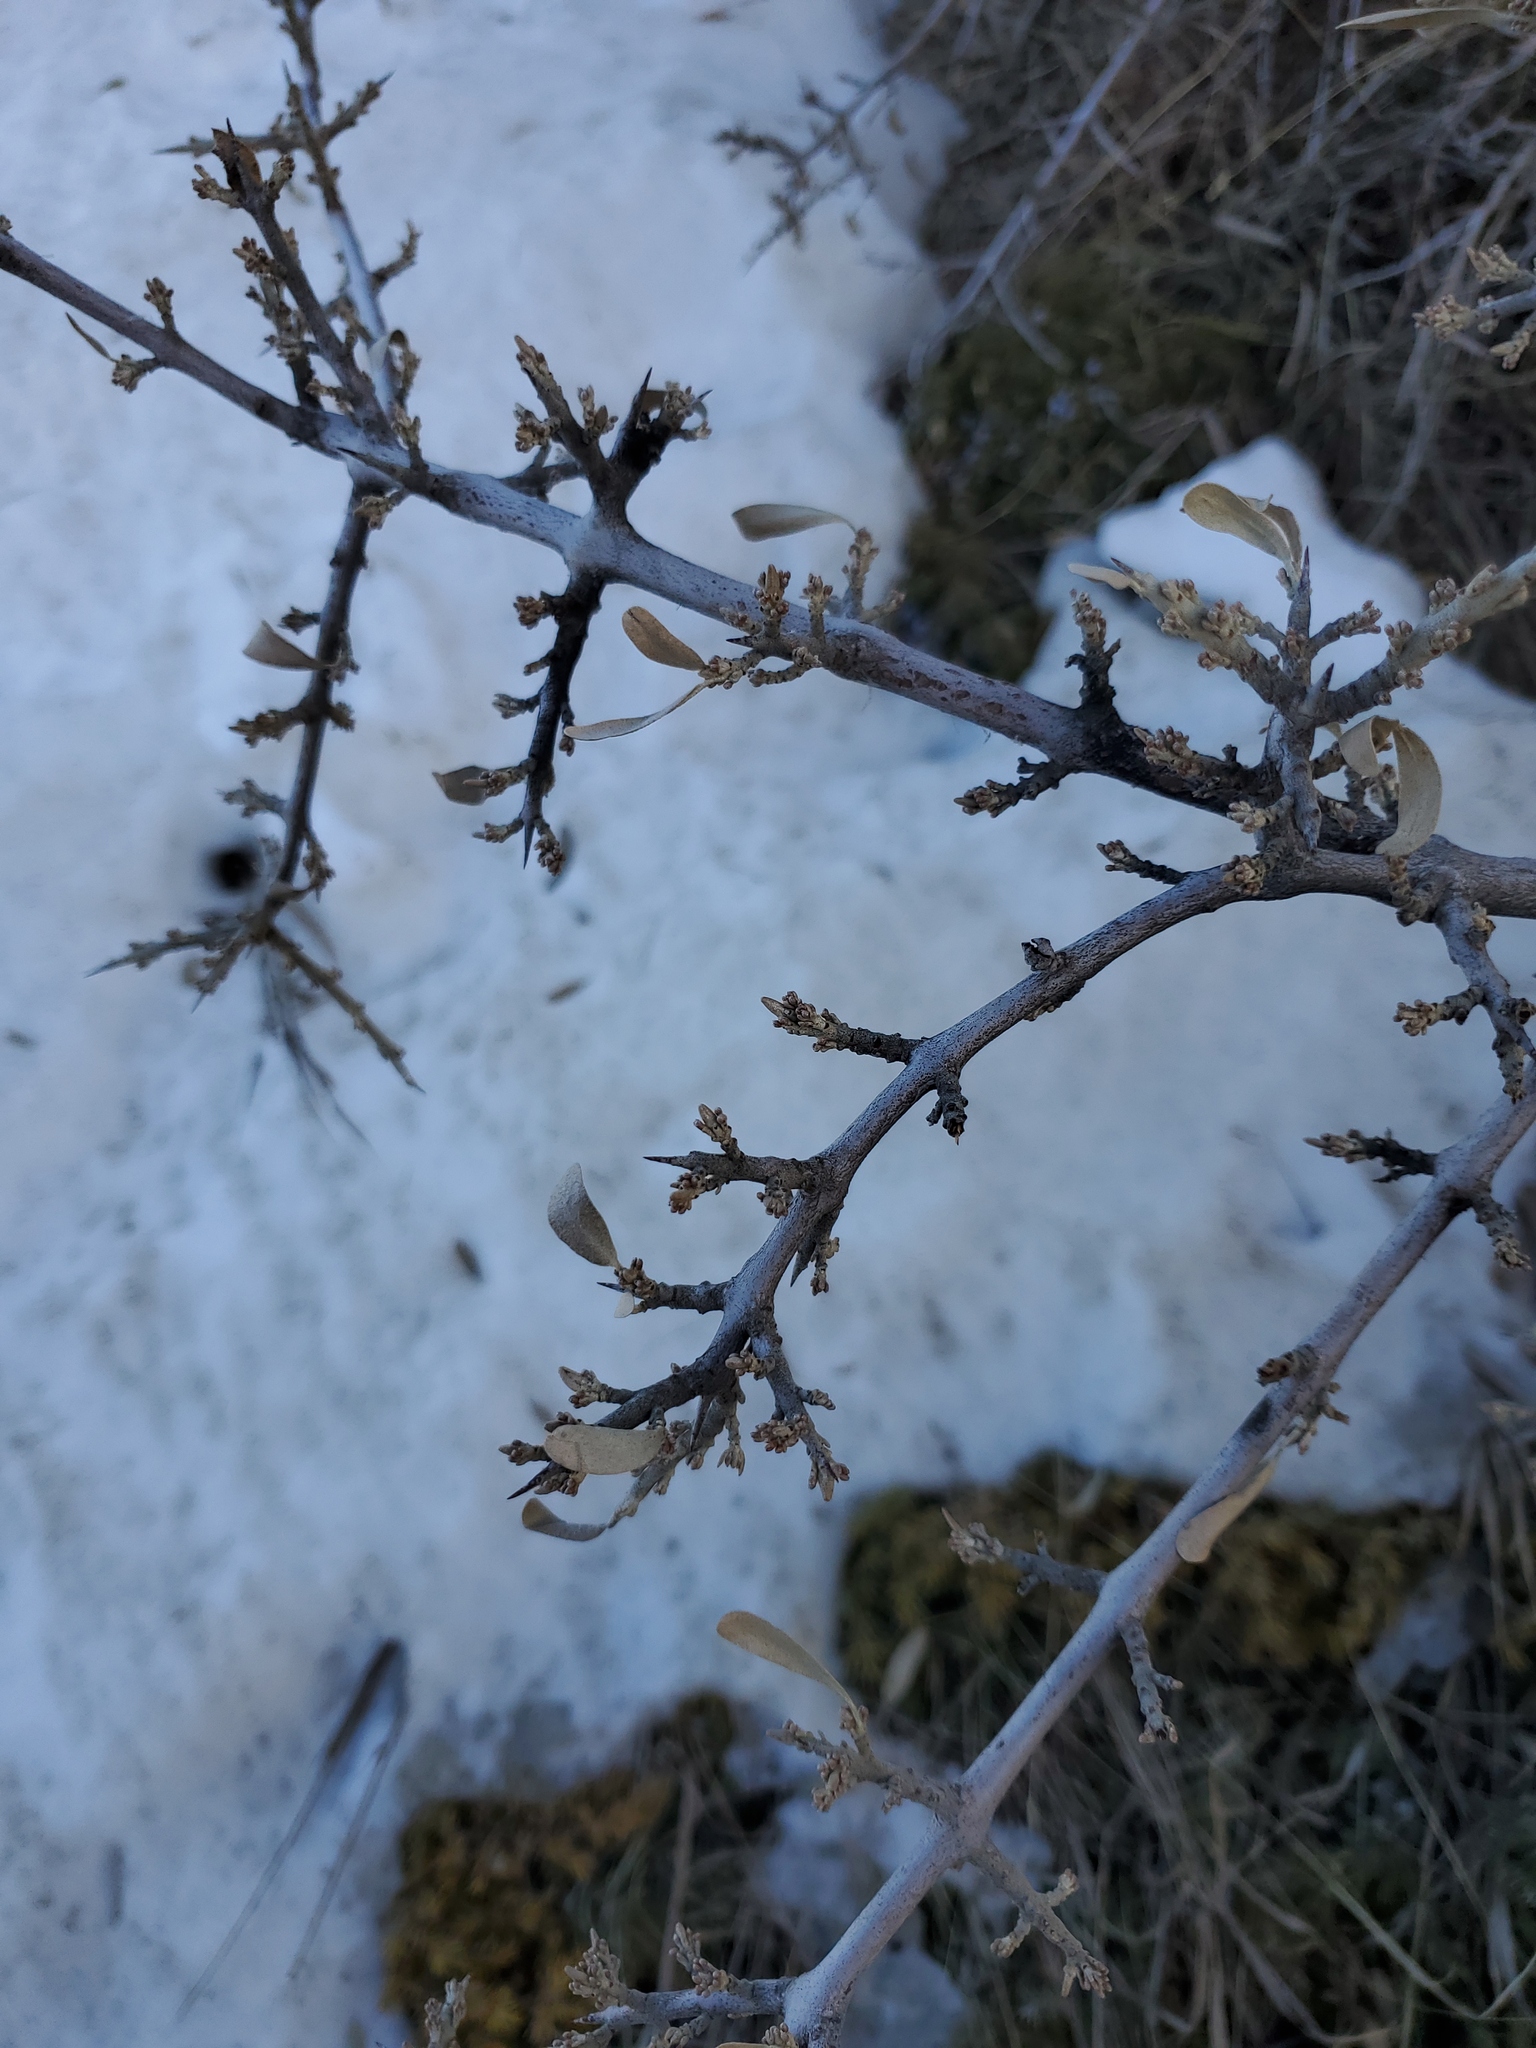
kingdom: Plantae
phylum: Tracheophyta
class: Magnoliopsida
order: Rosales
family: Elaeagnaceae
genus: Shepherdia
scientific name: Shepherdia argentea
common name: Silver buffaloberry
